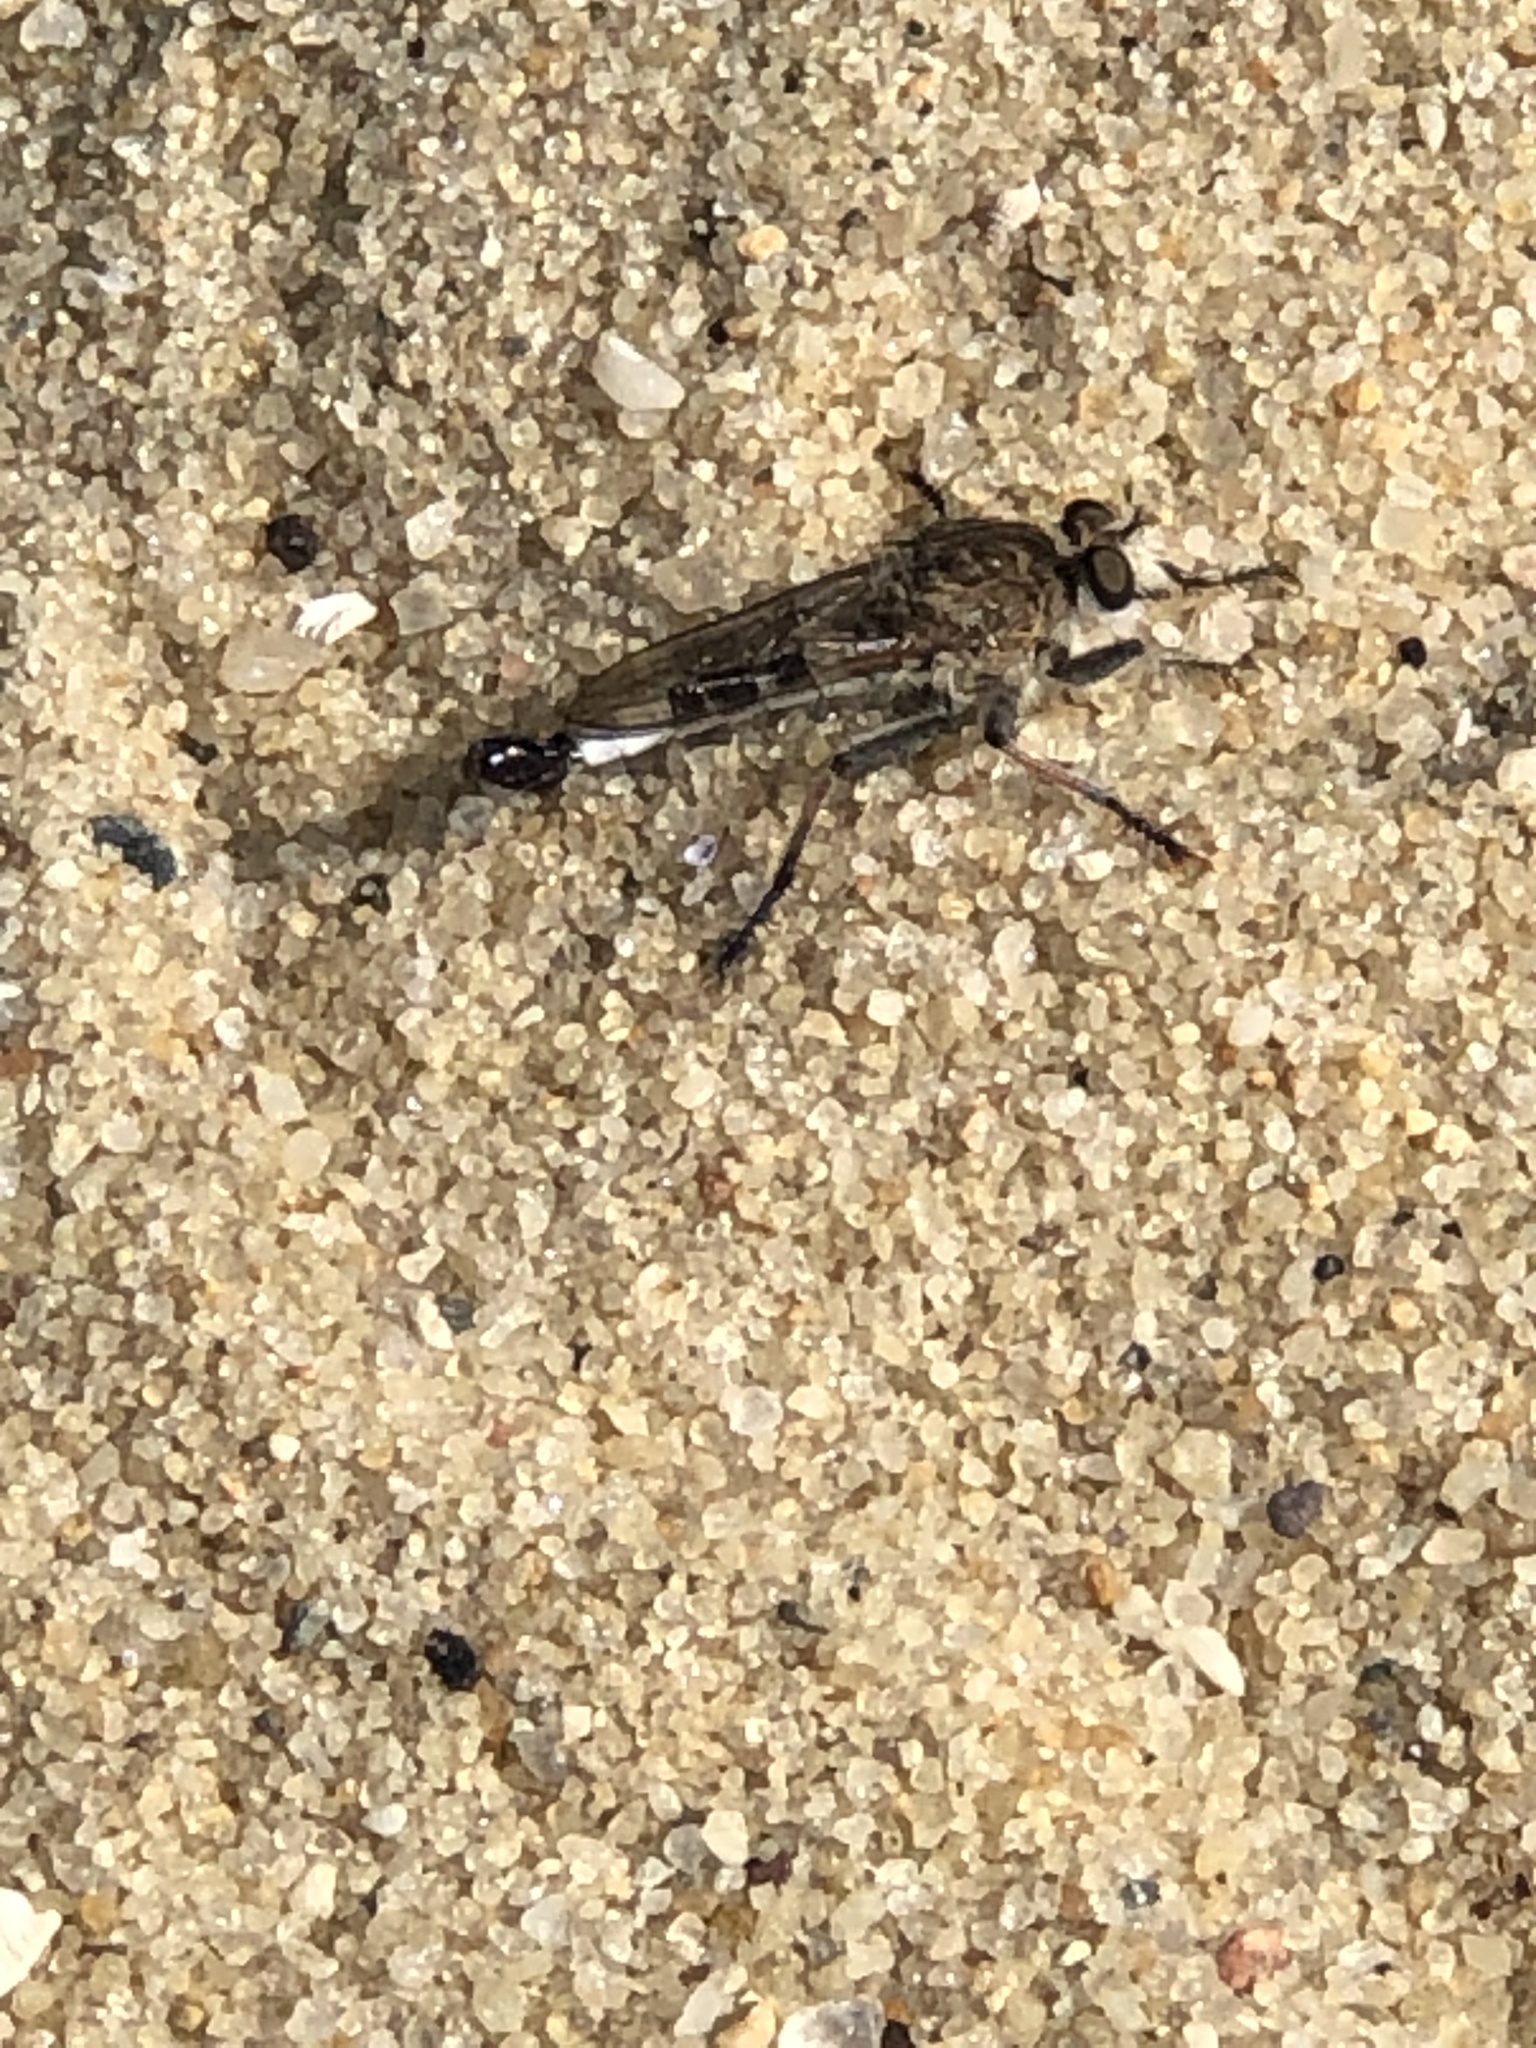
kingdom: Animalia
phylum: Arthropoda
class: Insecta
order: Diptera
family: Asilidae
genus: Efferia
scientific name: Efferia albibarbis
